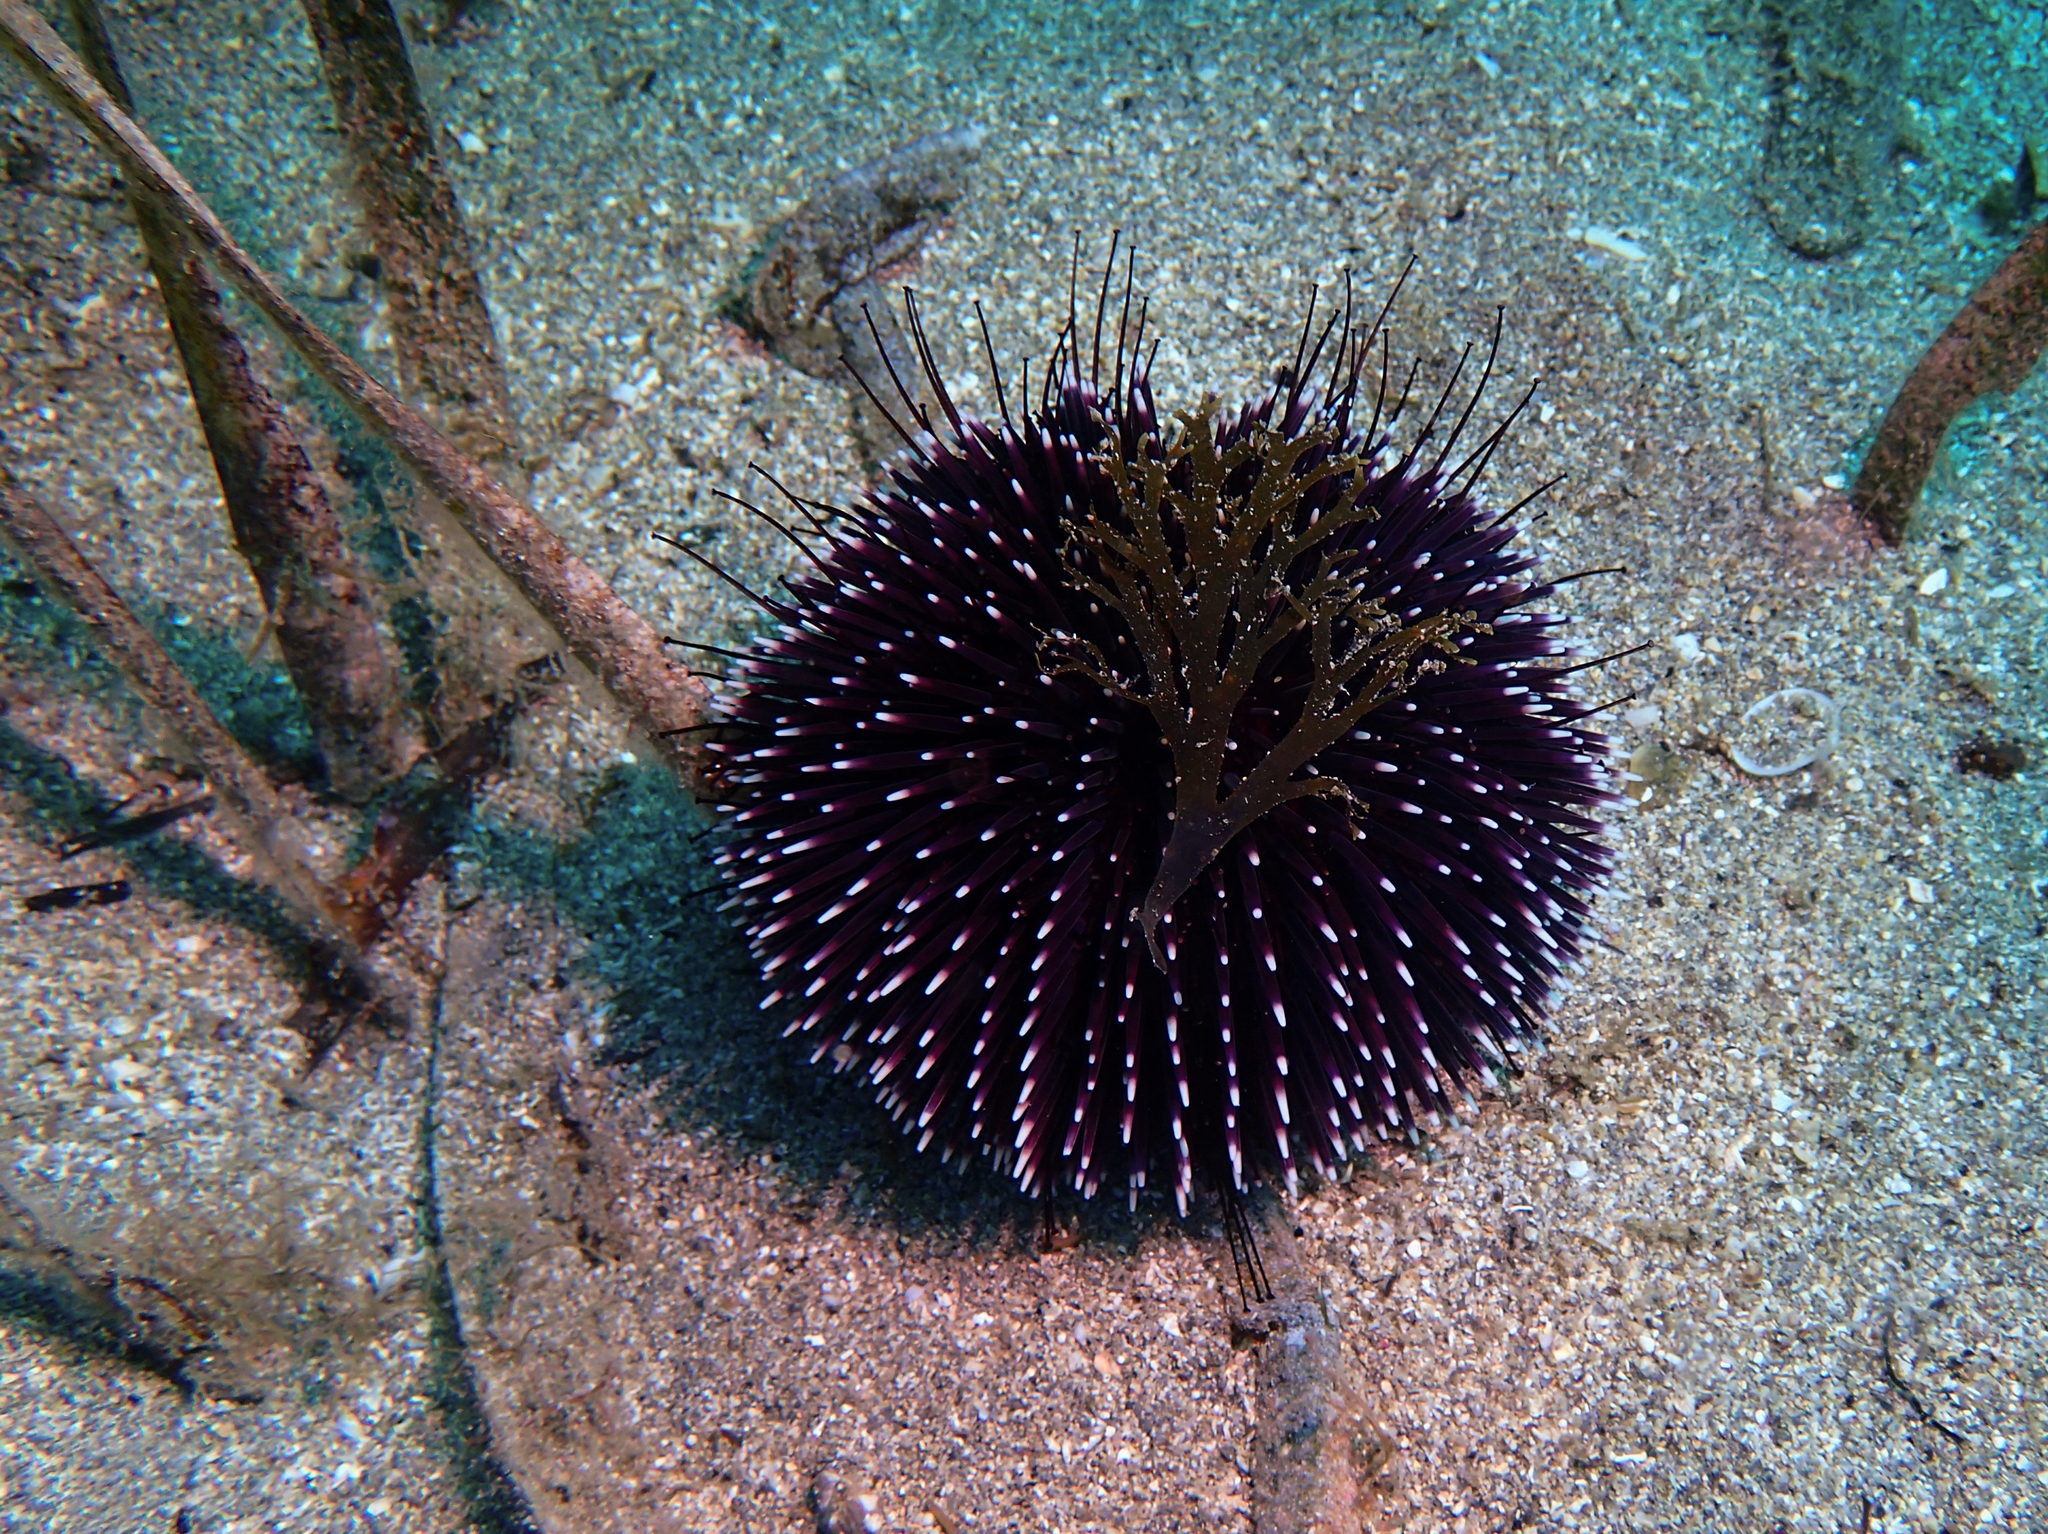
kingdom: Animalia
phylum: Echinodermata
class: Echinoidea
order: Camarodonta
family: Toxopneustidae
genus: Sphaerechinus
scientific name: Sphaerechinus granularis
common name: Violet sea urchin
